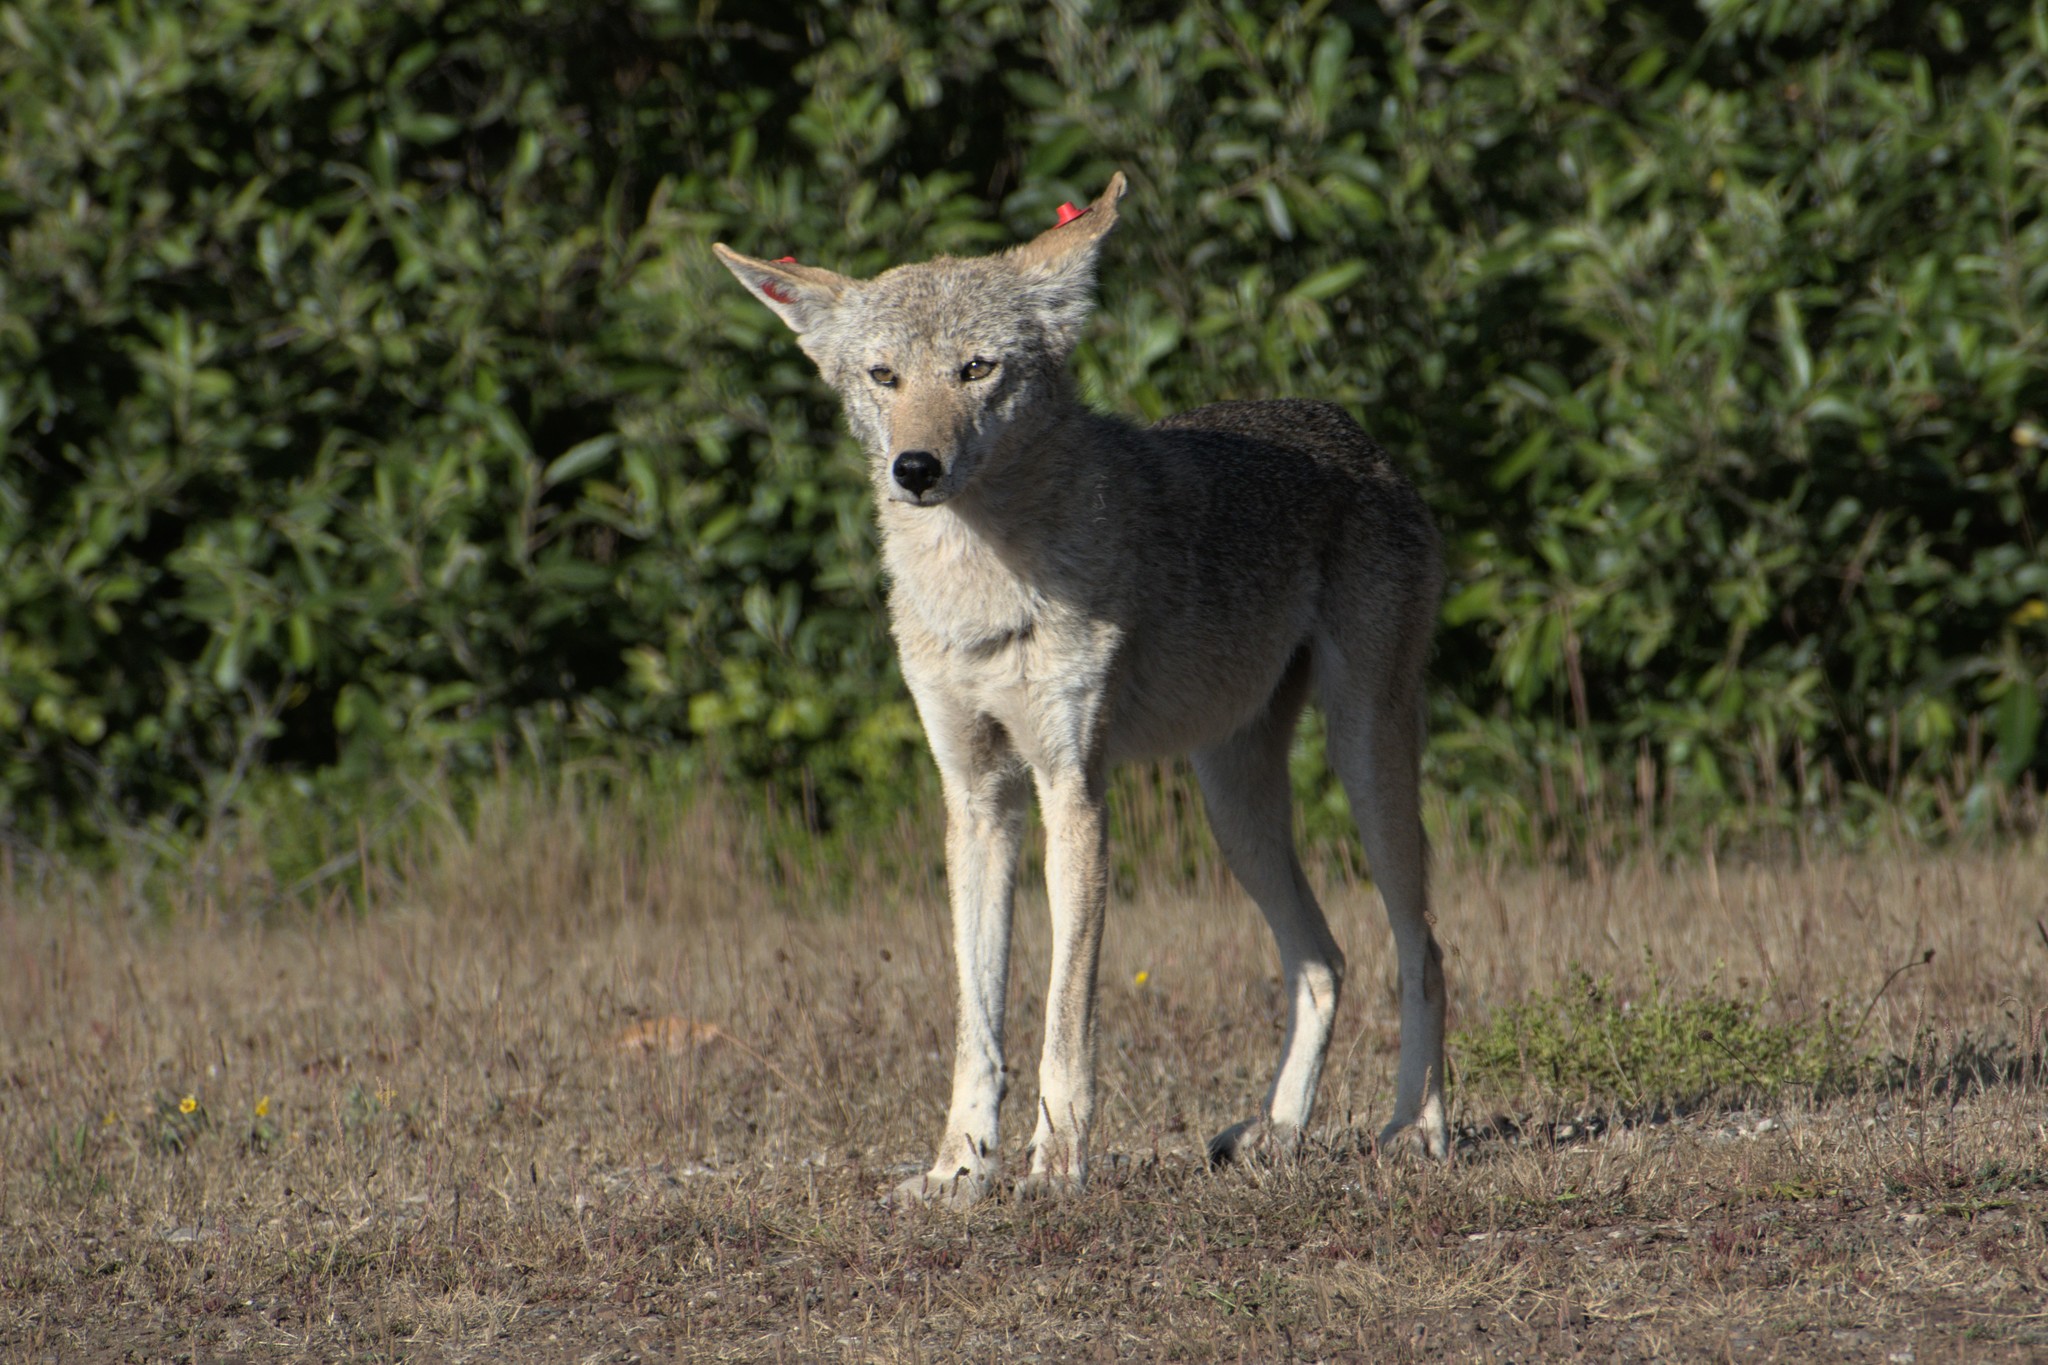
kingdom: Animalia
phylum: Chordata
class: Mammalia
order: Carnivora
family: Canidae
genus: Canis
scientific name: Canis latrans
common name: Coyote
